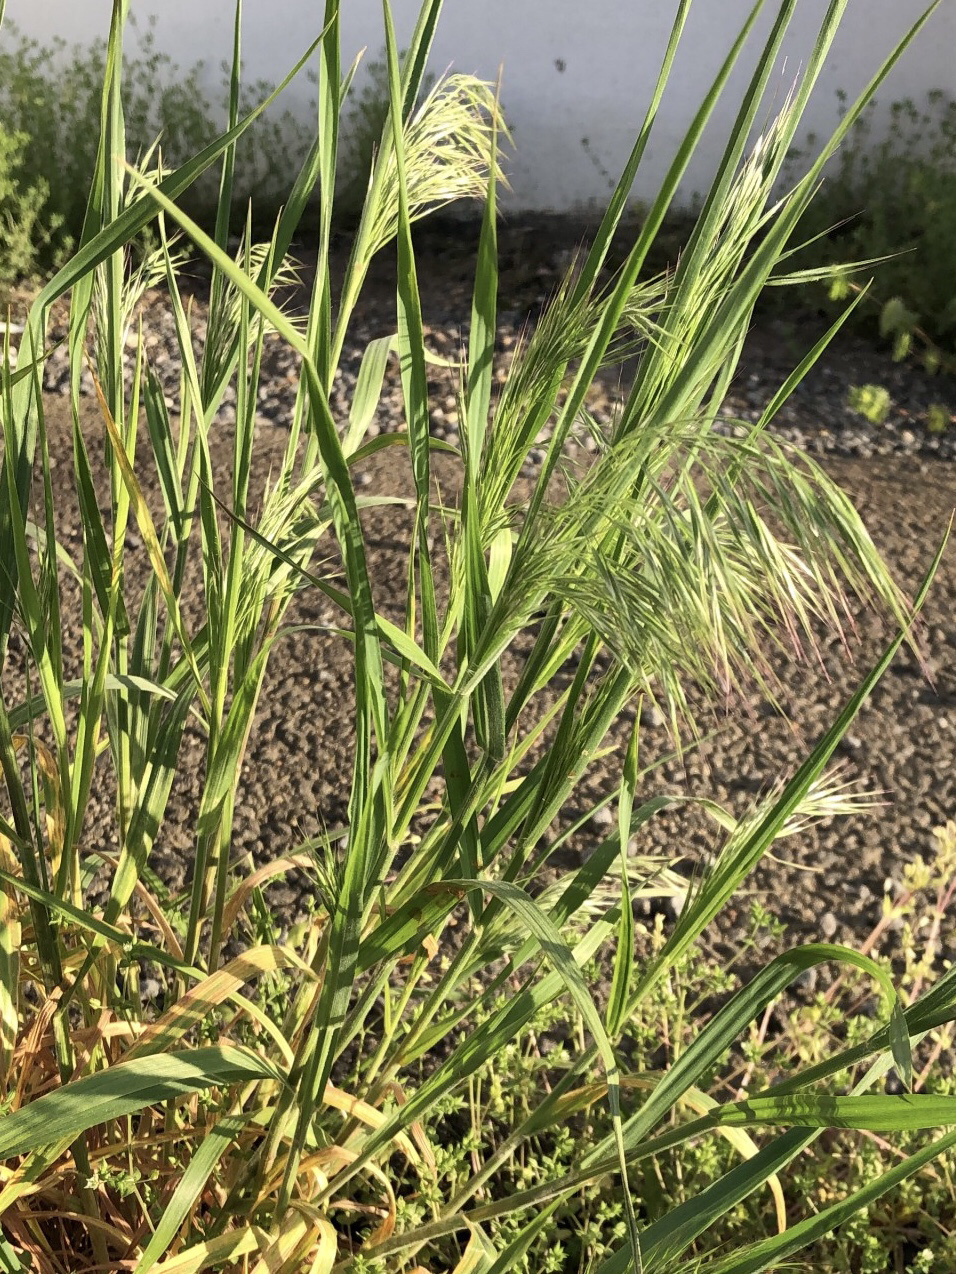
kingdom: Plantae
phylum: Tracheophyta
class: Liliopsida
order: Poales
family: Poaceae
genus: Bromus
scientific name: Bromus tectorum
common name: Cheatgrass
